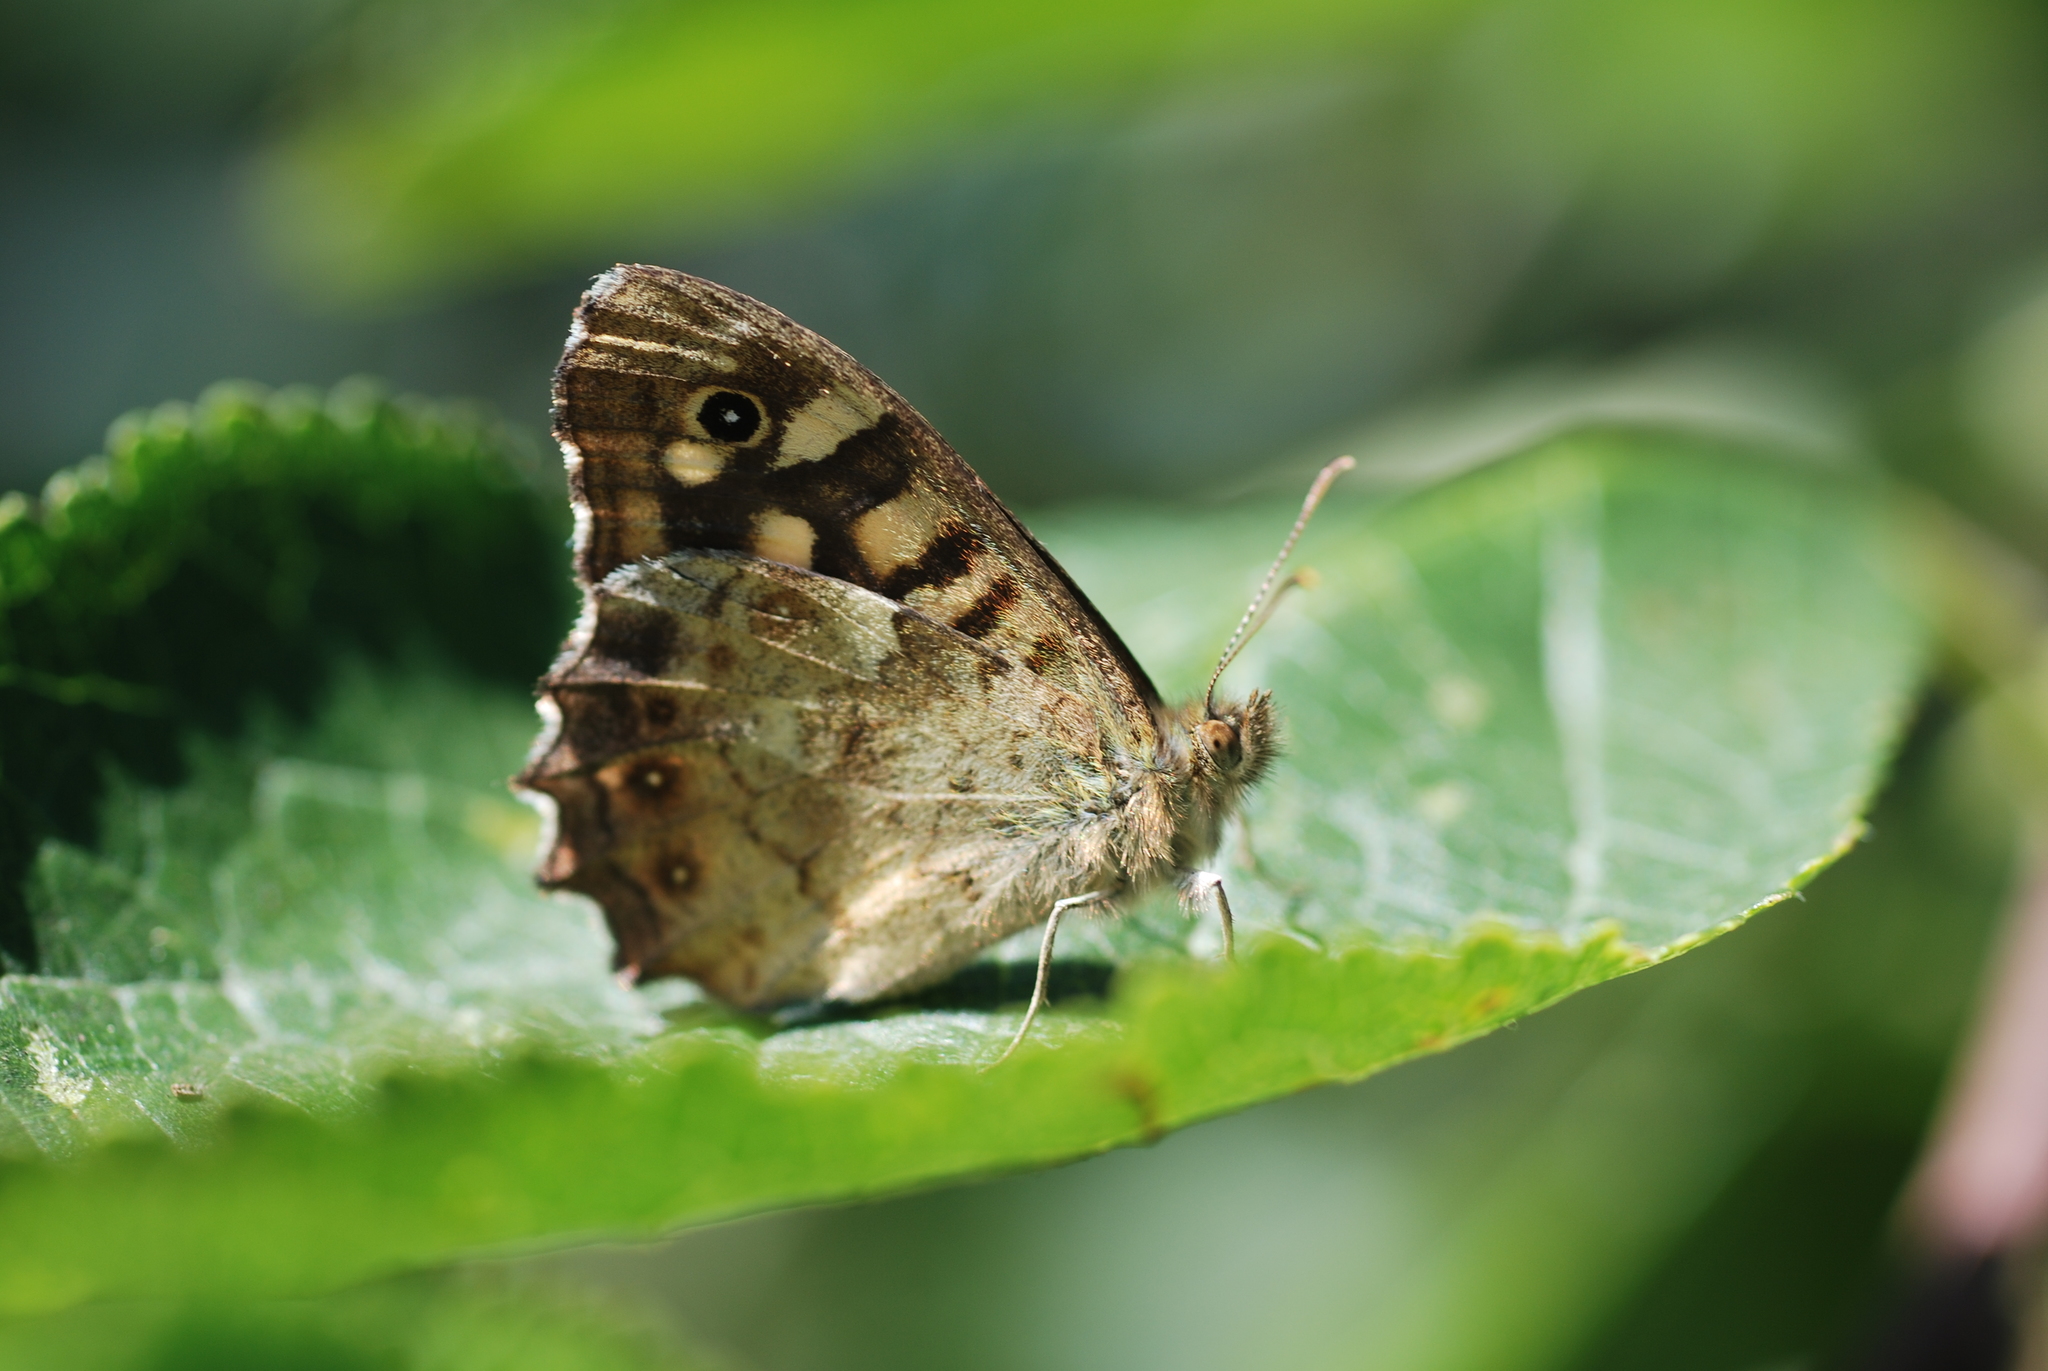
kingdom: Animalia
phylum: Arthropoda
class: Insecta
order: Lepidoptera
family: Nymphalidae
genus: Pararge
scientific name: Pararge aegeria
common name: Speckled wood
